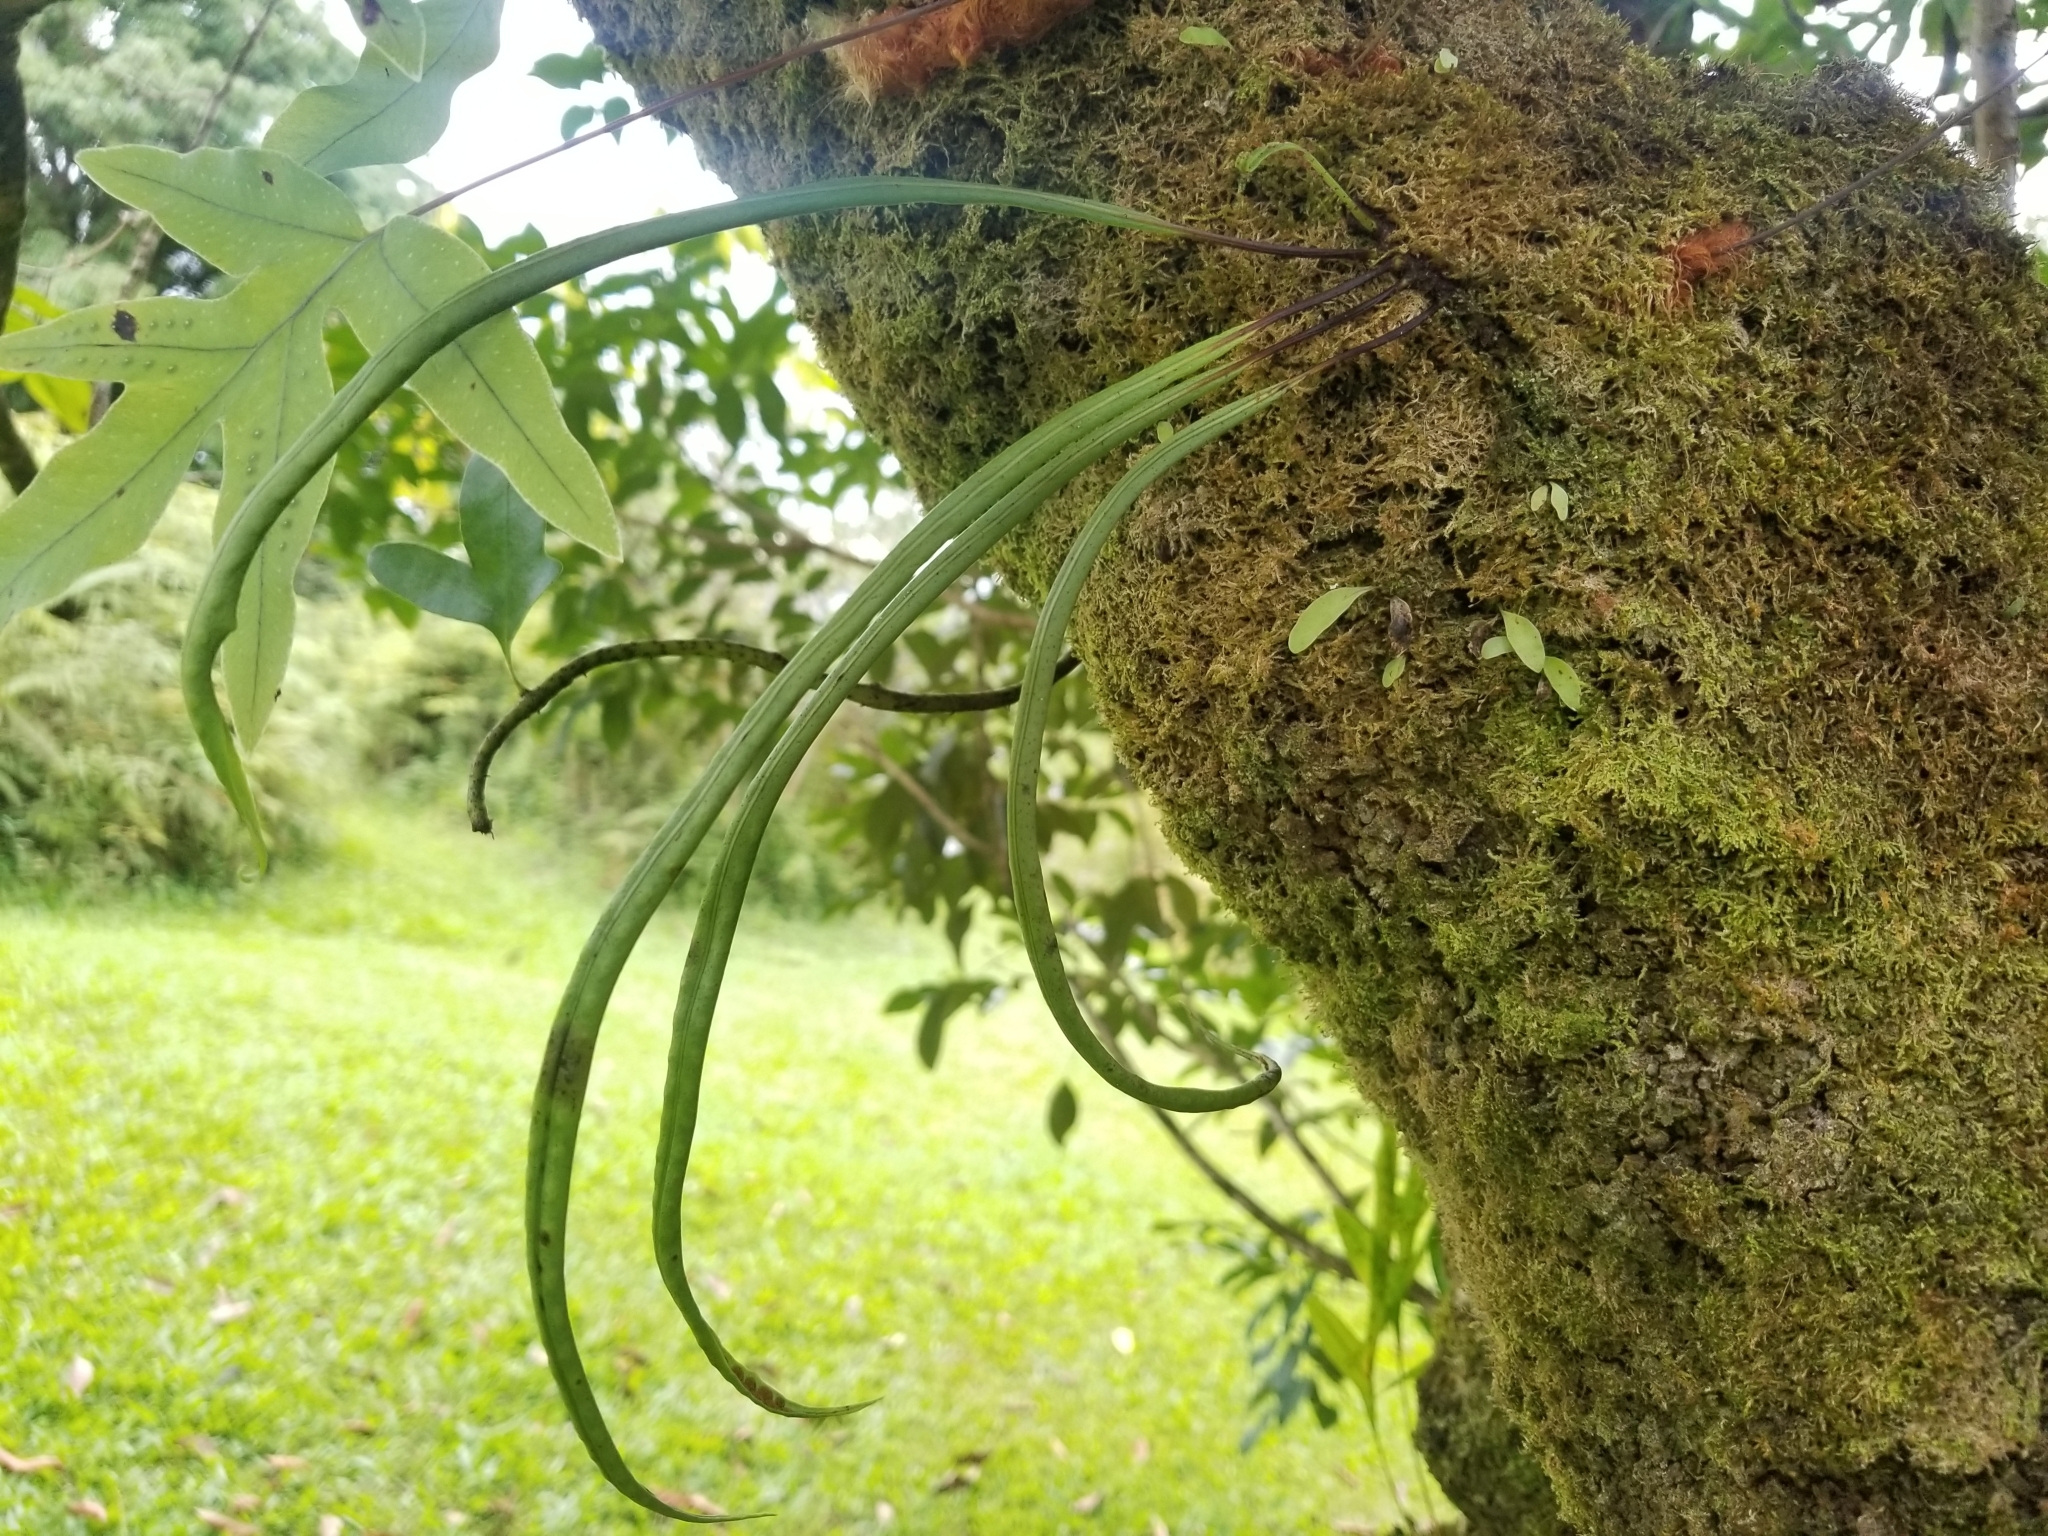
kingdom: Plantae
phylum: Tracheophyta
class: Polypodiopsida
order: Polypodiales
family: Polypodiaceae
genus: Lepisorus
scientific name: Lepisorus thunbergianus
